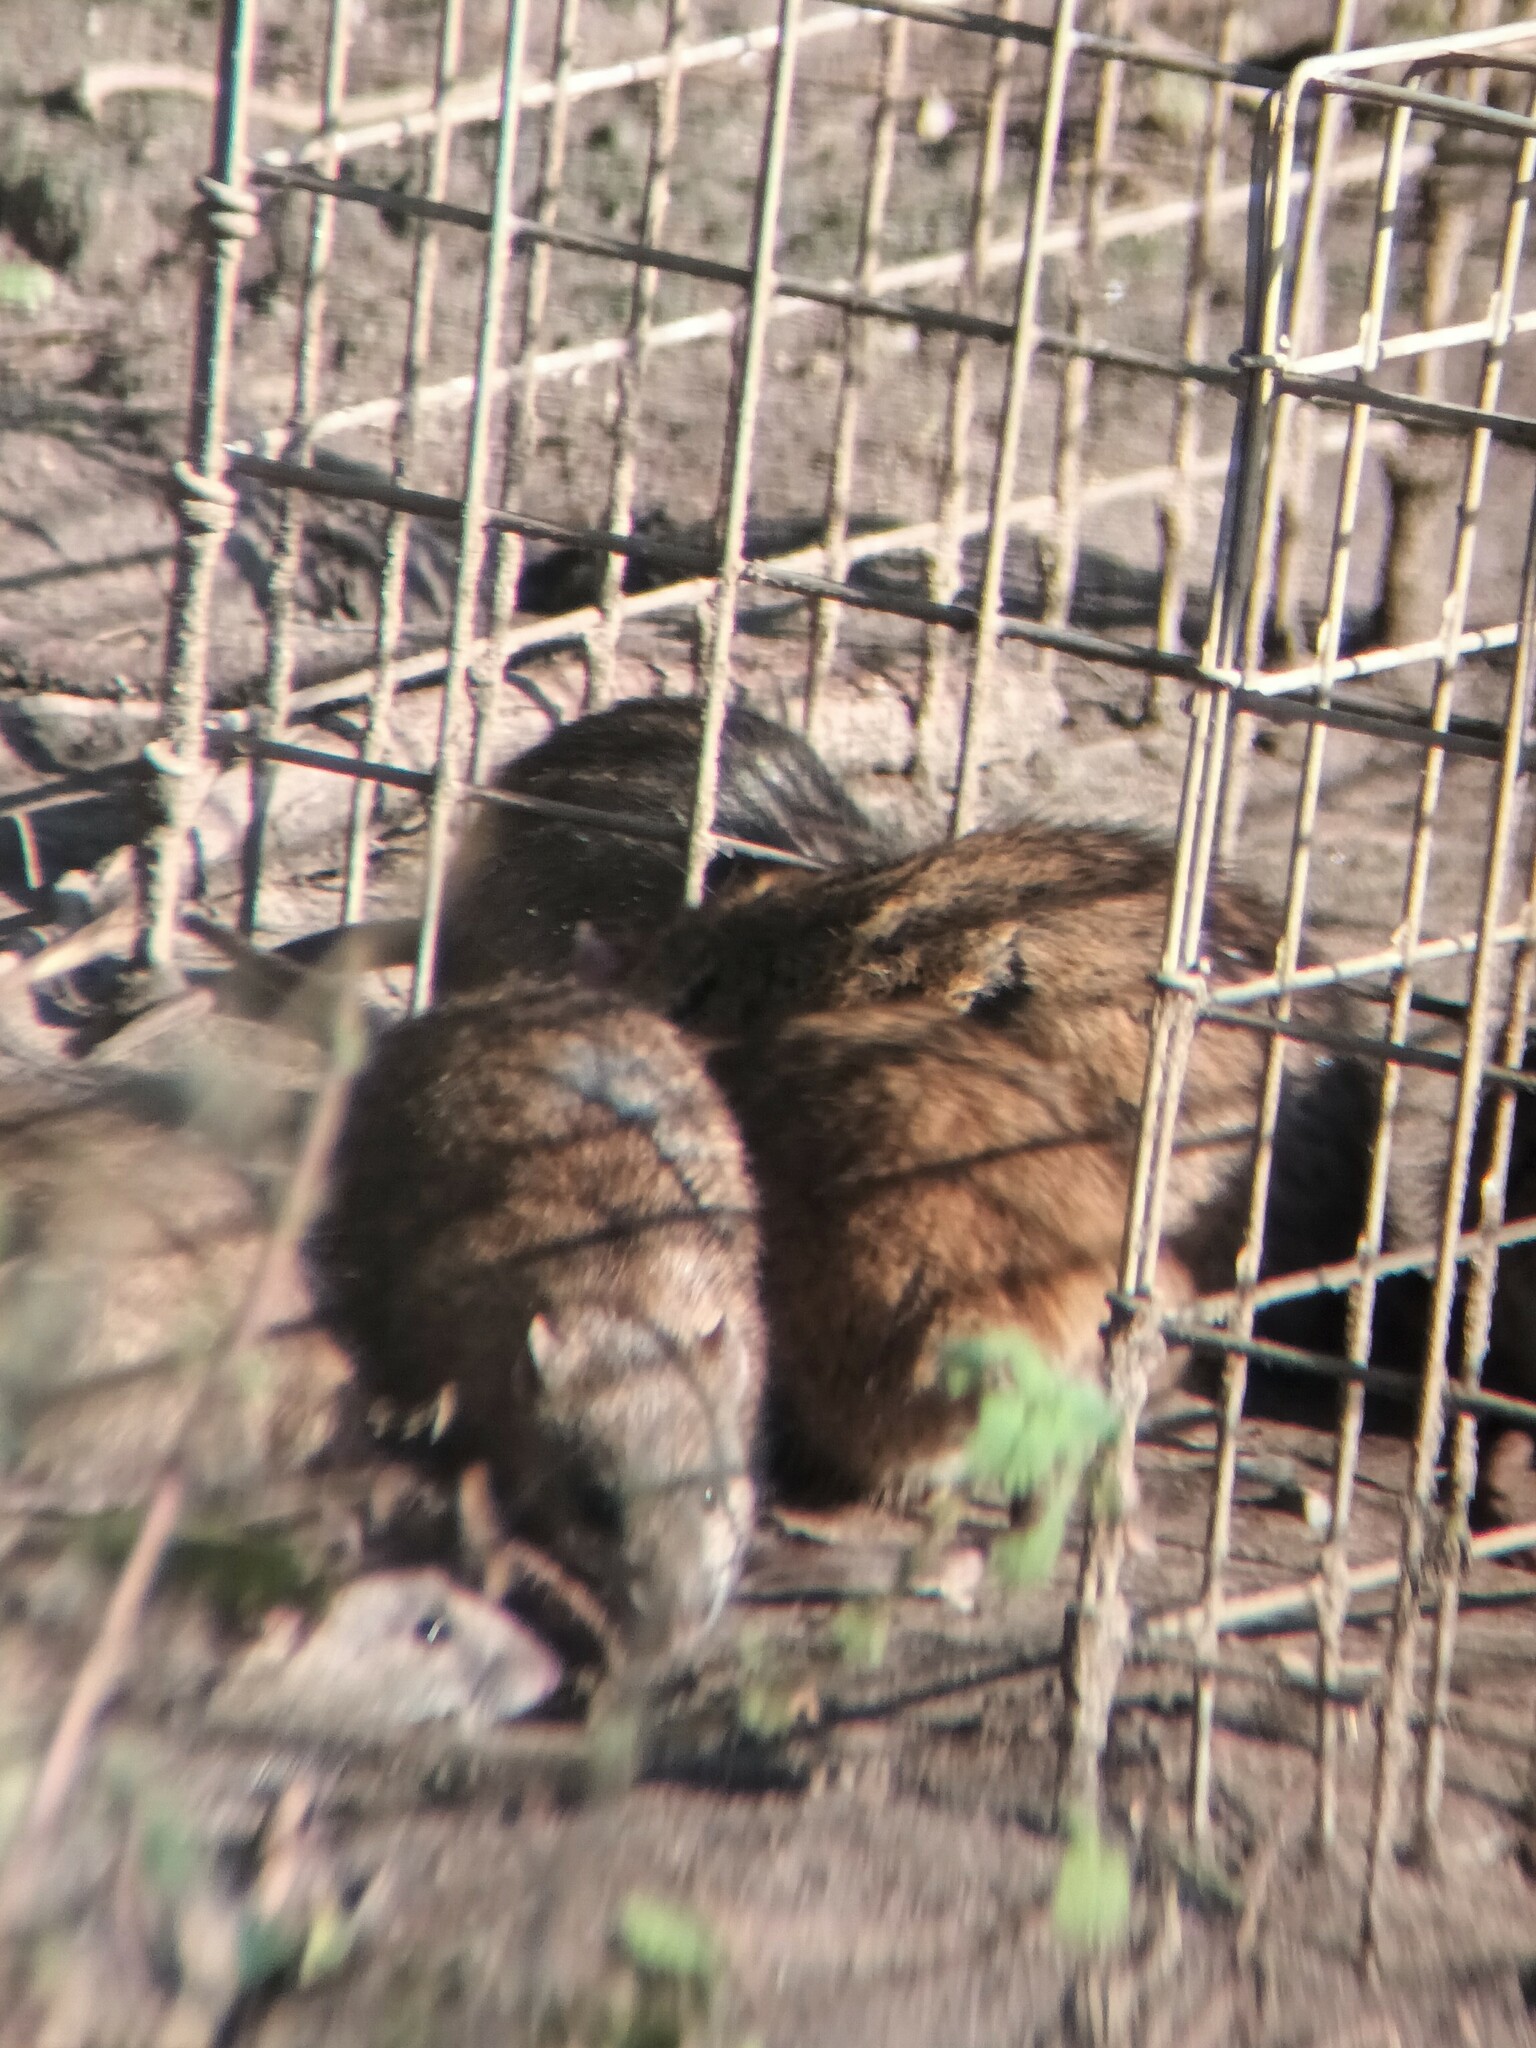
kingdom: Animalia
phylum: Chordata
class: Mammalia
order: Rodentia
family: Muridae
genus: Rattus
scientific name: Rattus norvegicus
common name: Brown rat
